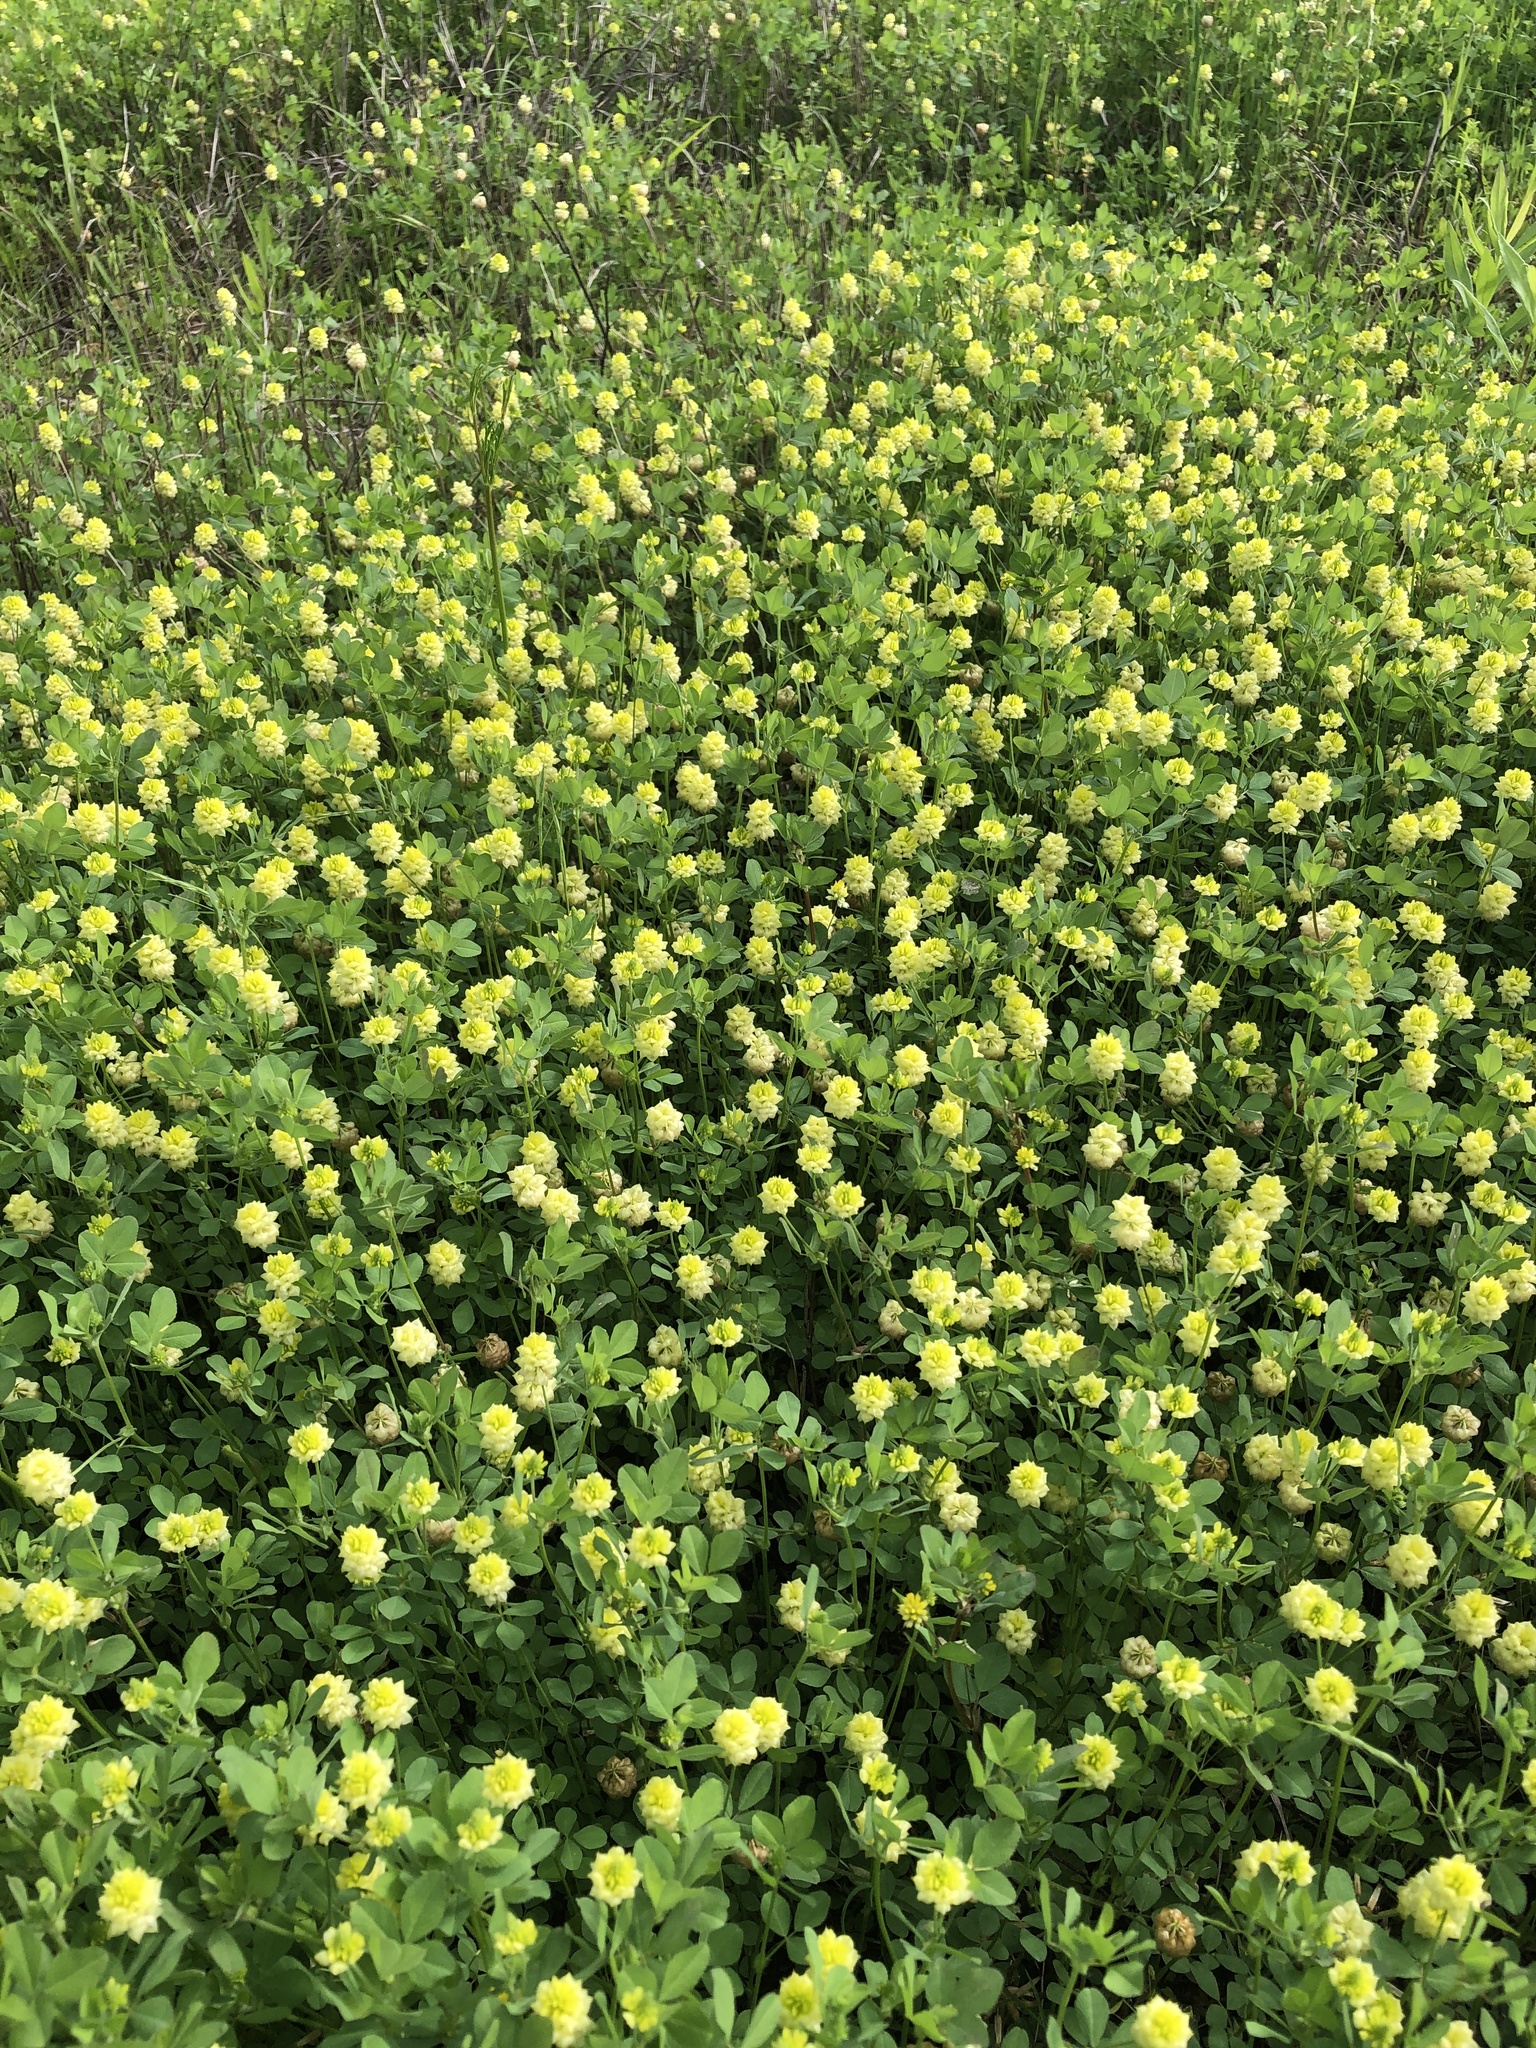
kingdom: Plantae
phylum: Tracheophyta
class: Magnoliopsida
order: Fabales
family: Fabaceae
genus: Trifolium
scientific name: Trifolium campestre
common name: Field clover
